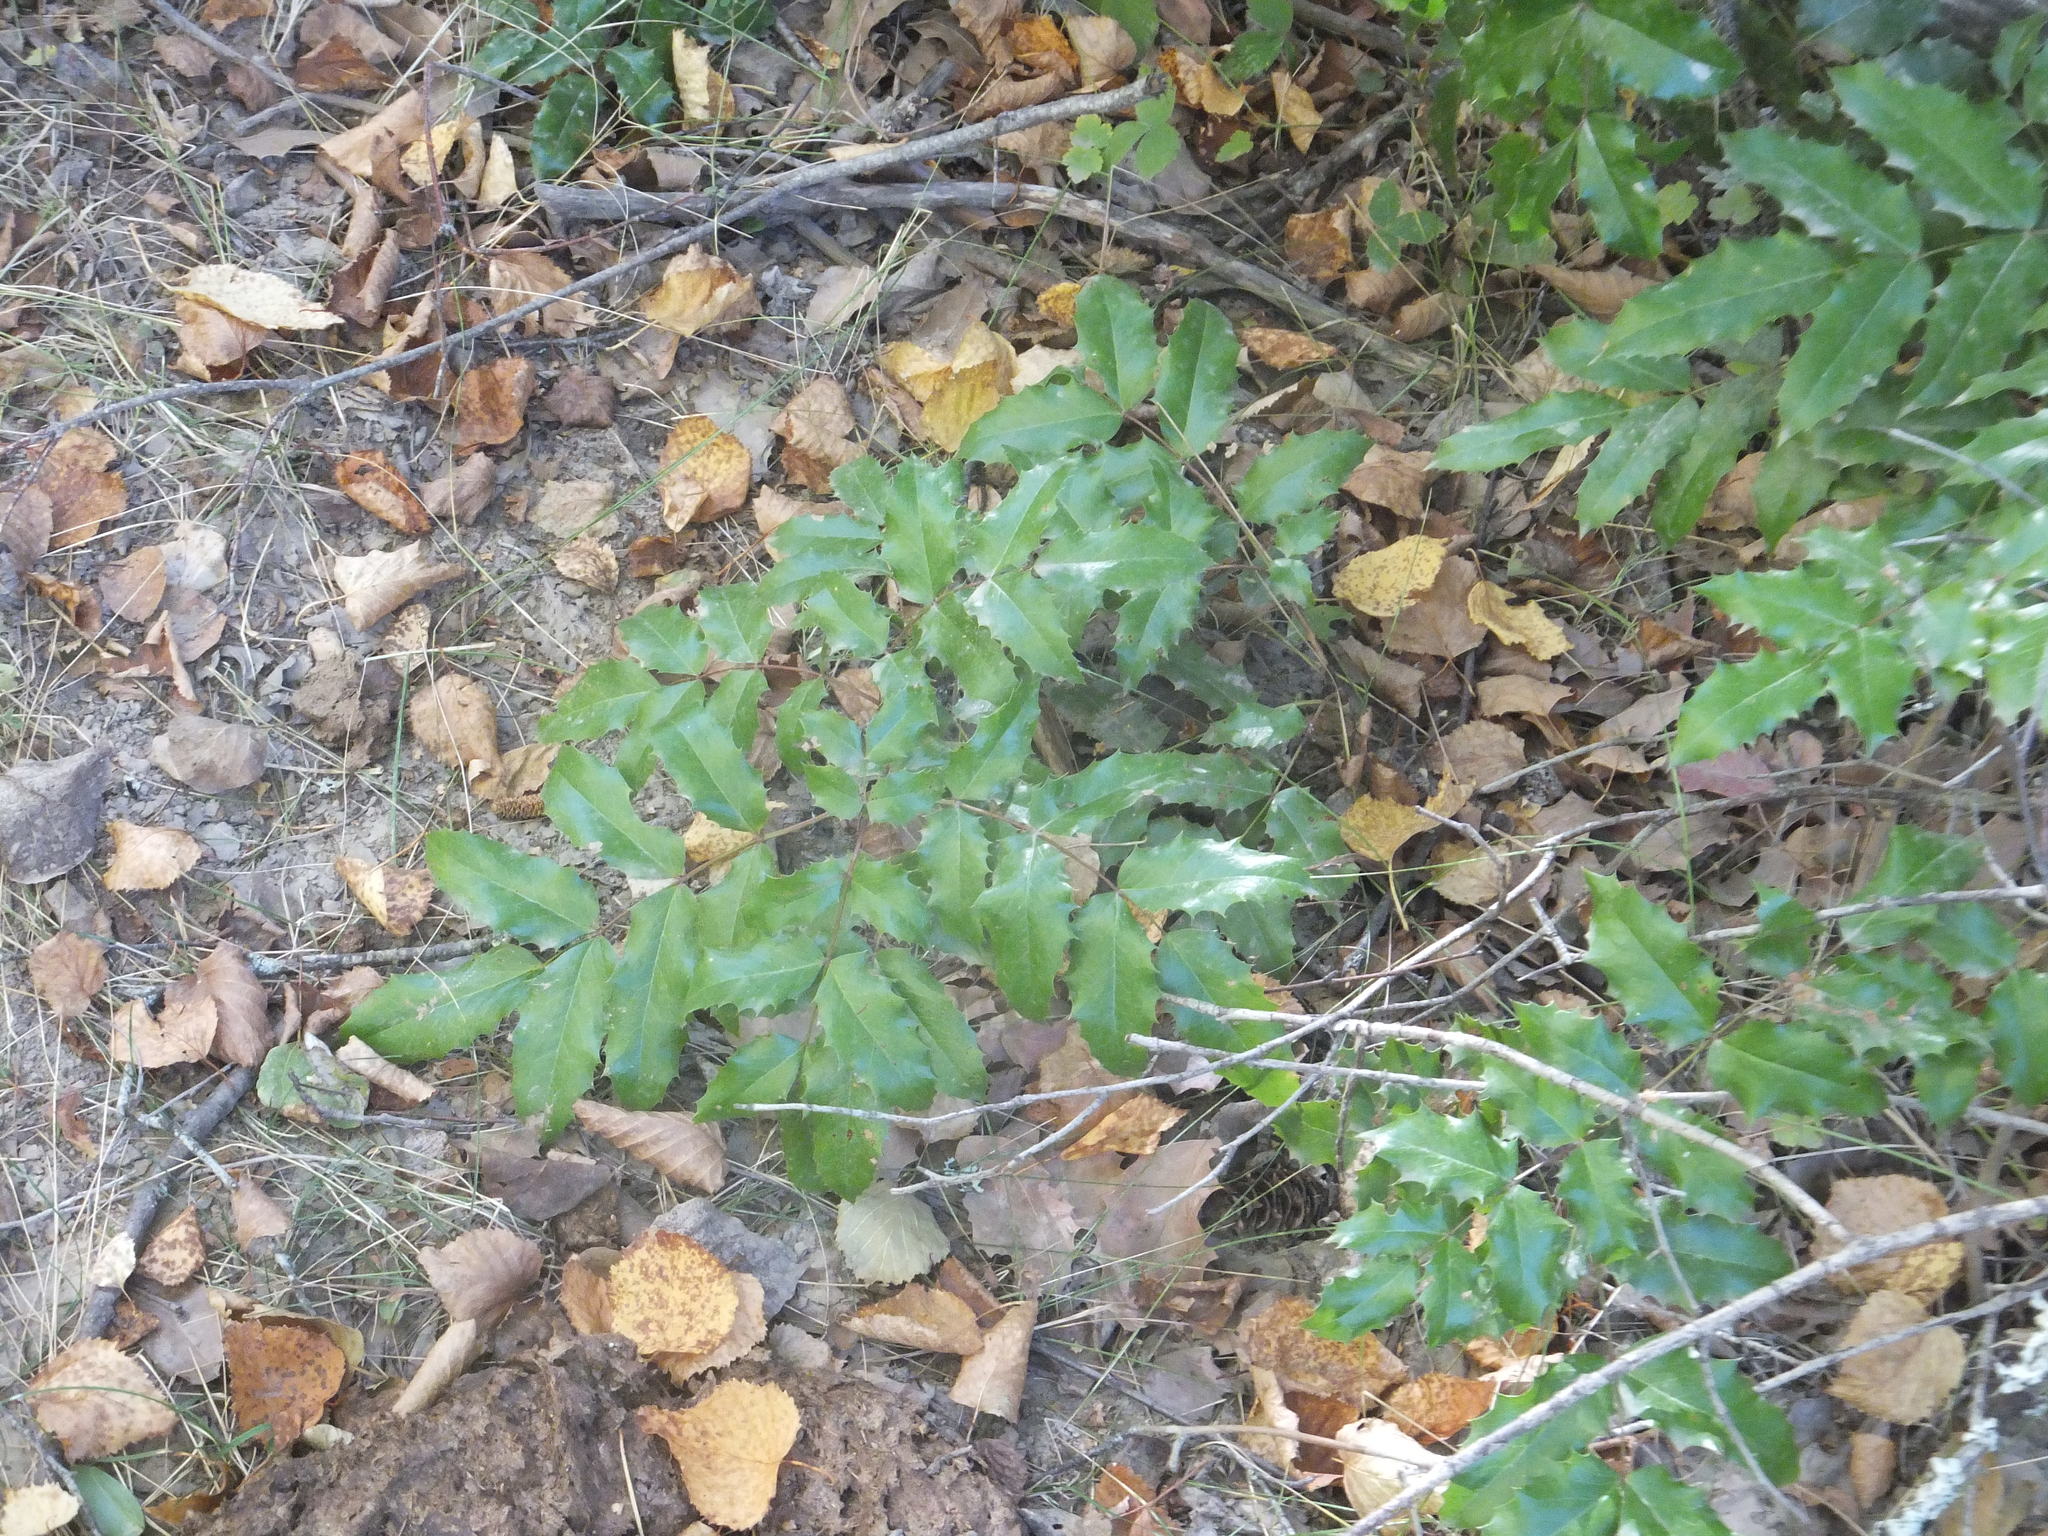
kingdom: Plantae
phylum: Tracheophyta
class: Magnoliopsida
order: Ranunculales
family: Berberidaceae
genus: Mahonia
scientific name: Mahonia aquifolium
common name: Oregon-grape
